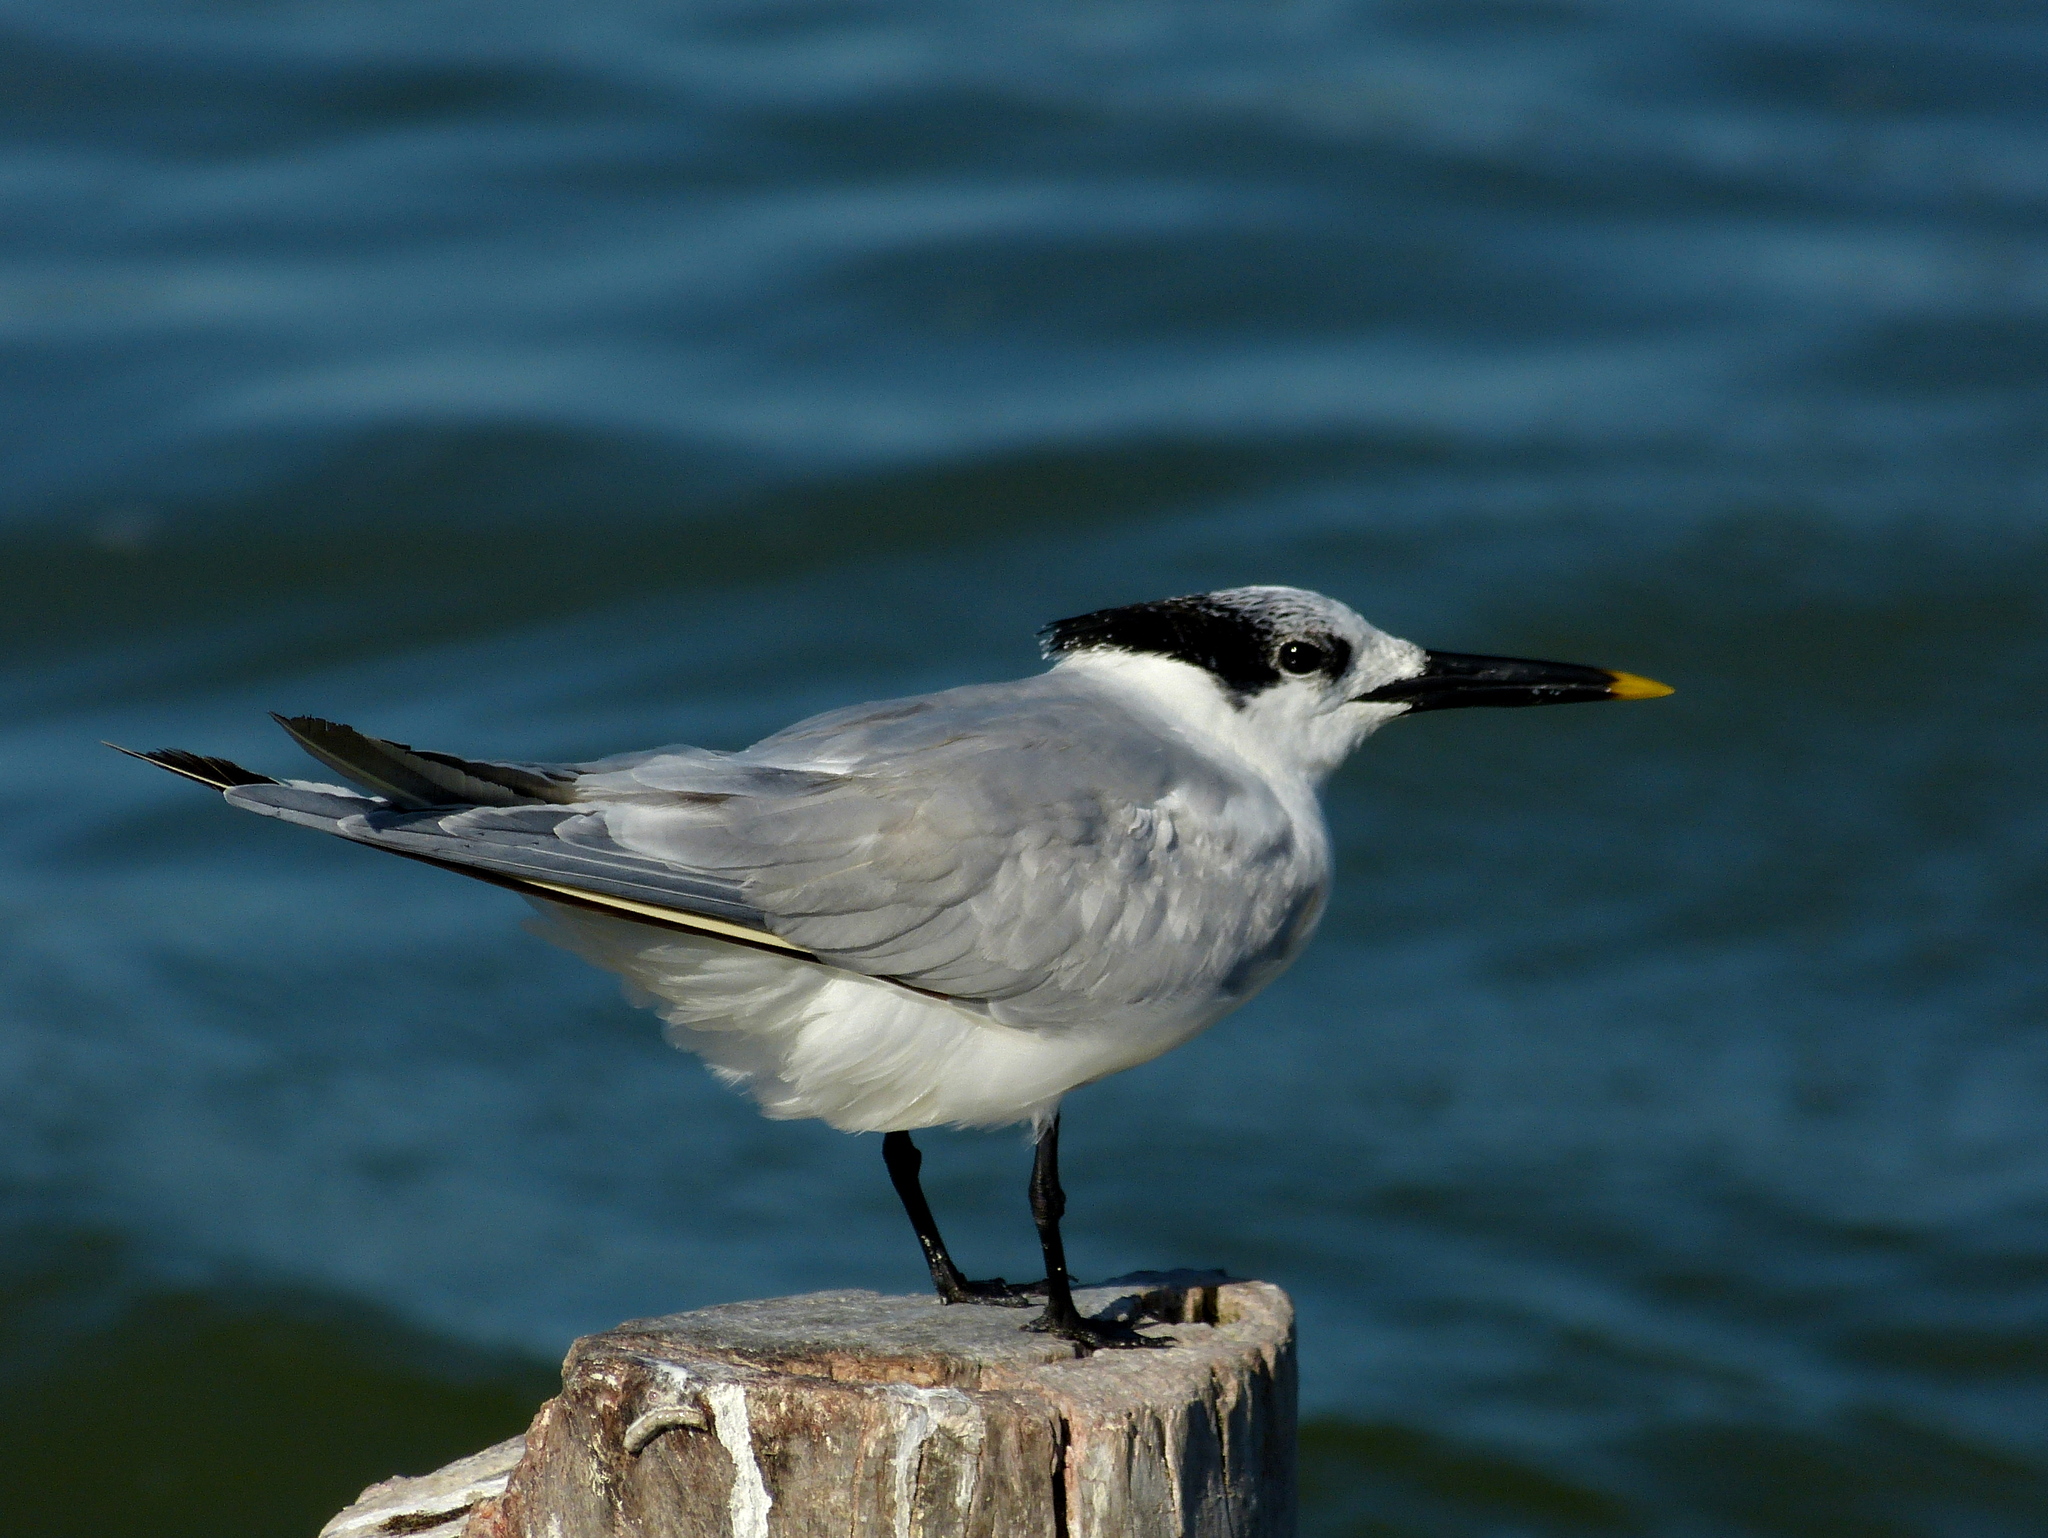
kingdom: Animalia
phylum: Chordata
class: Aves
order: Charadriiformes
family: Laridae
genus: Thalasseus
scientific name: Thalasseus sandvicensis
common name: Sandwich tern
